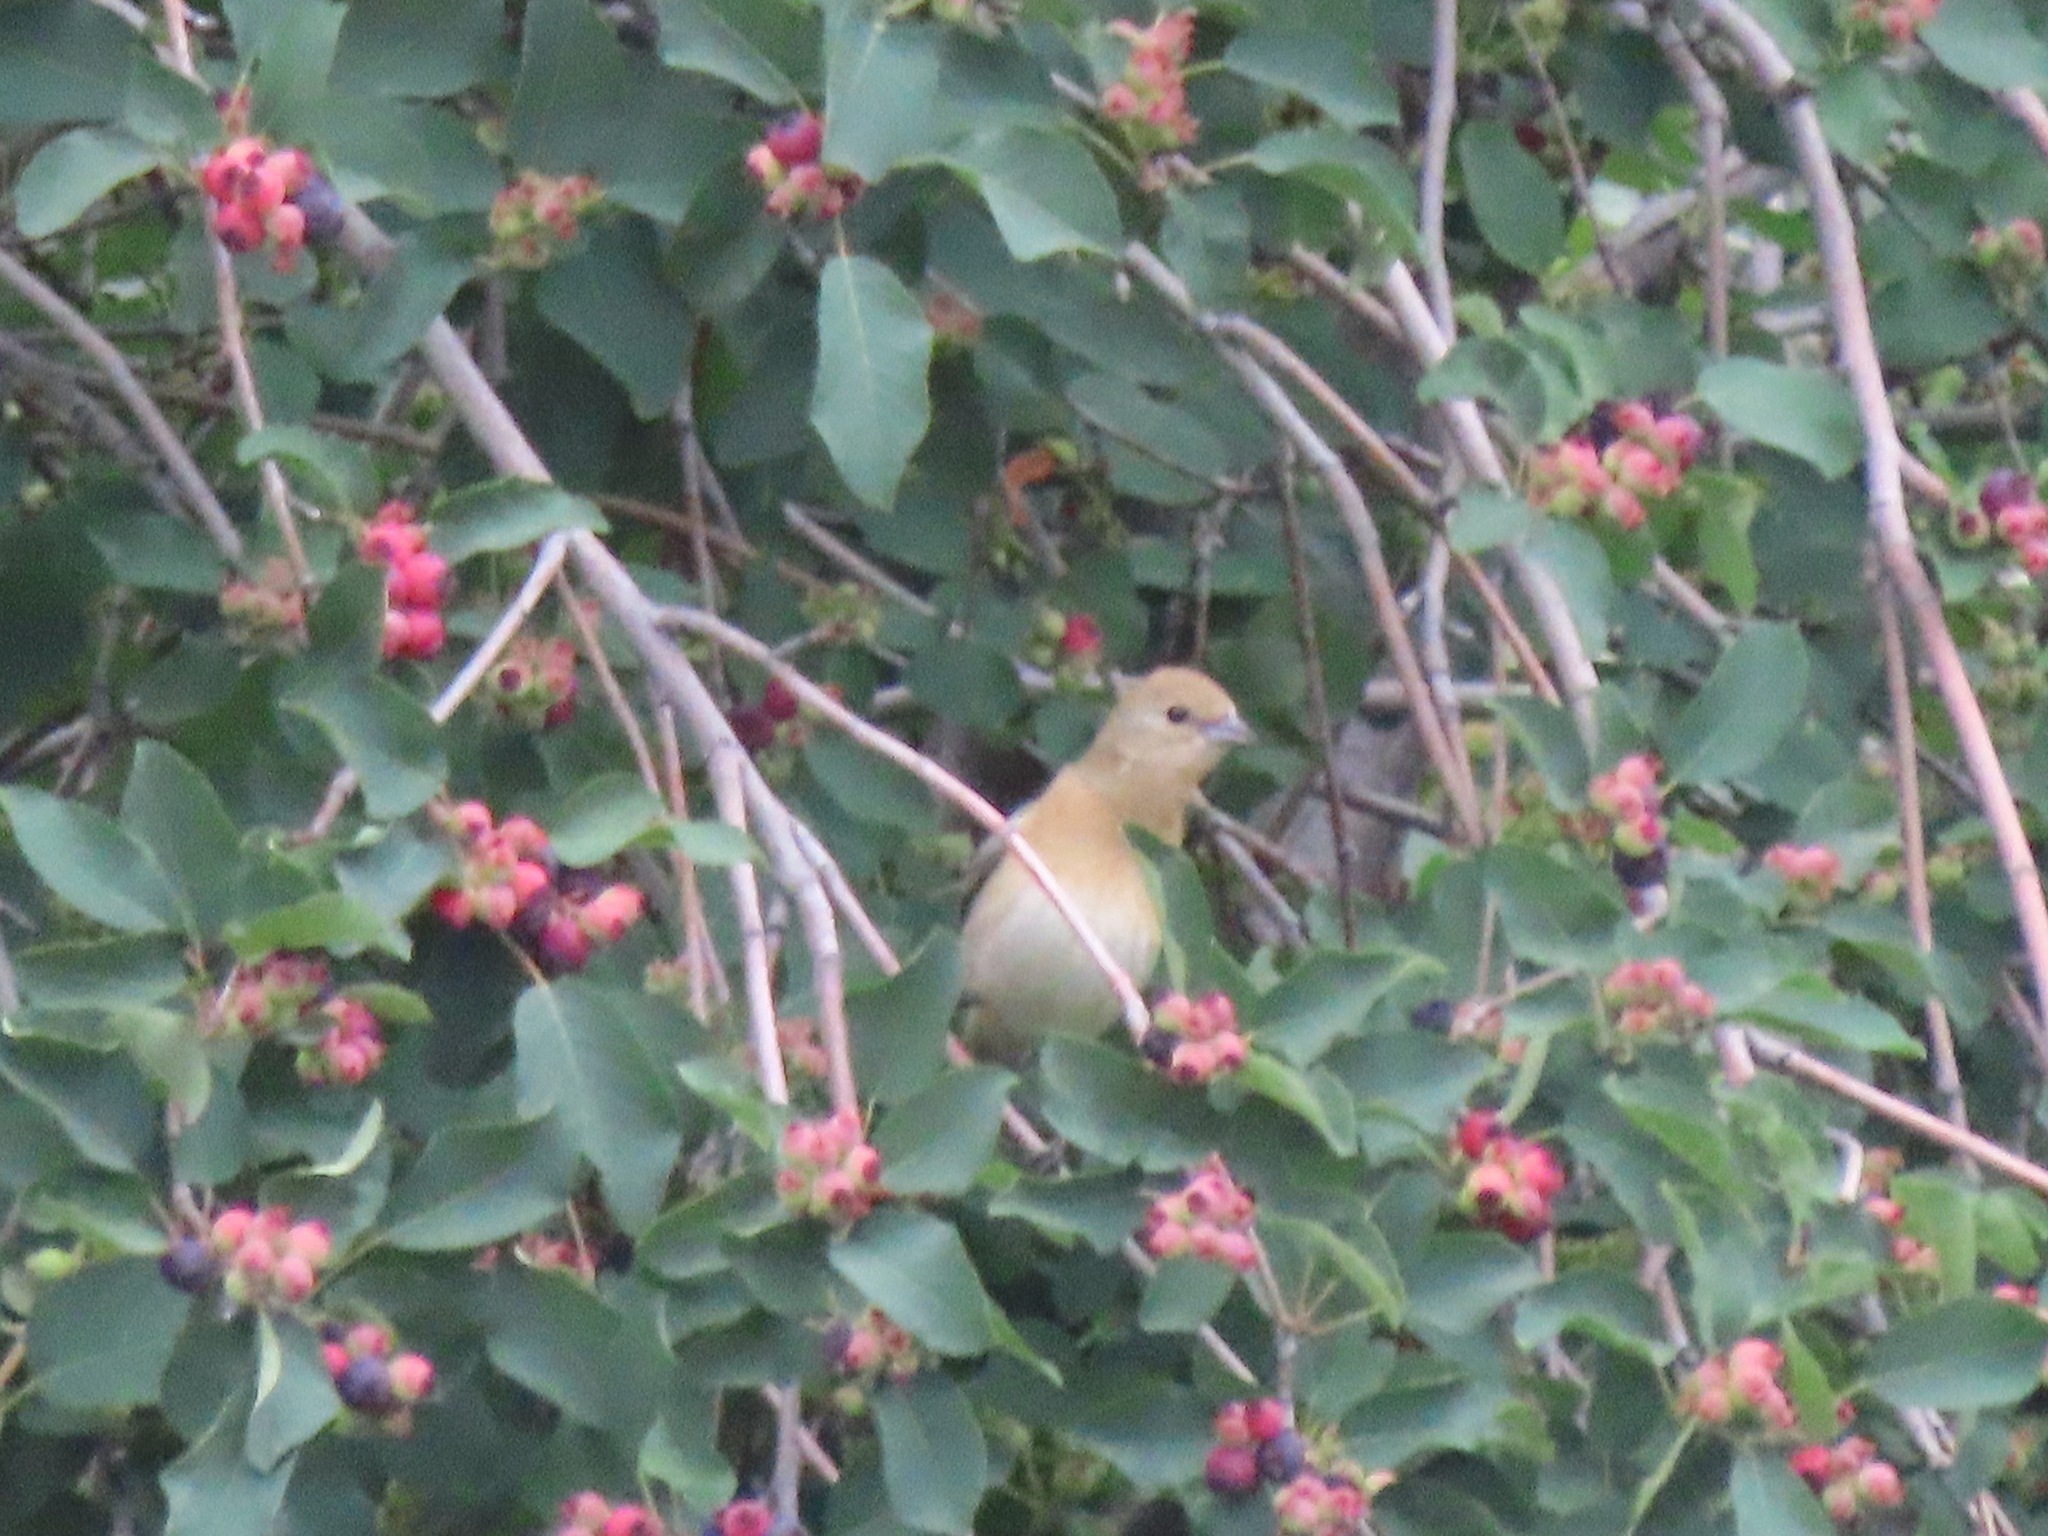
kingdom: Animalia
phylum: Chordata
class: Aves
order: Passeriformes
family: Cardinalidae
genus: Passerina
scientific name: Passerina amoena
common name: Lazuli bunting
